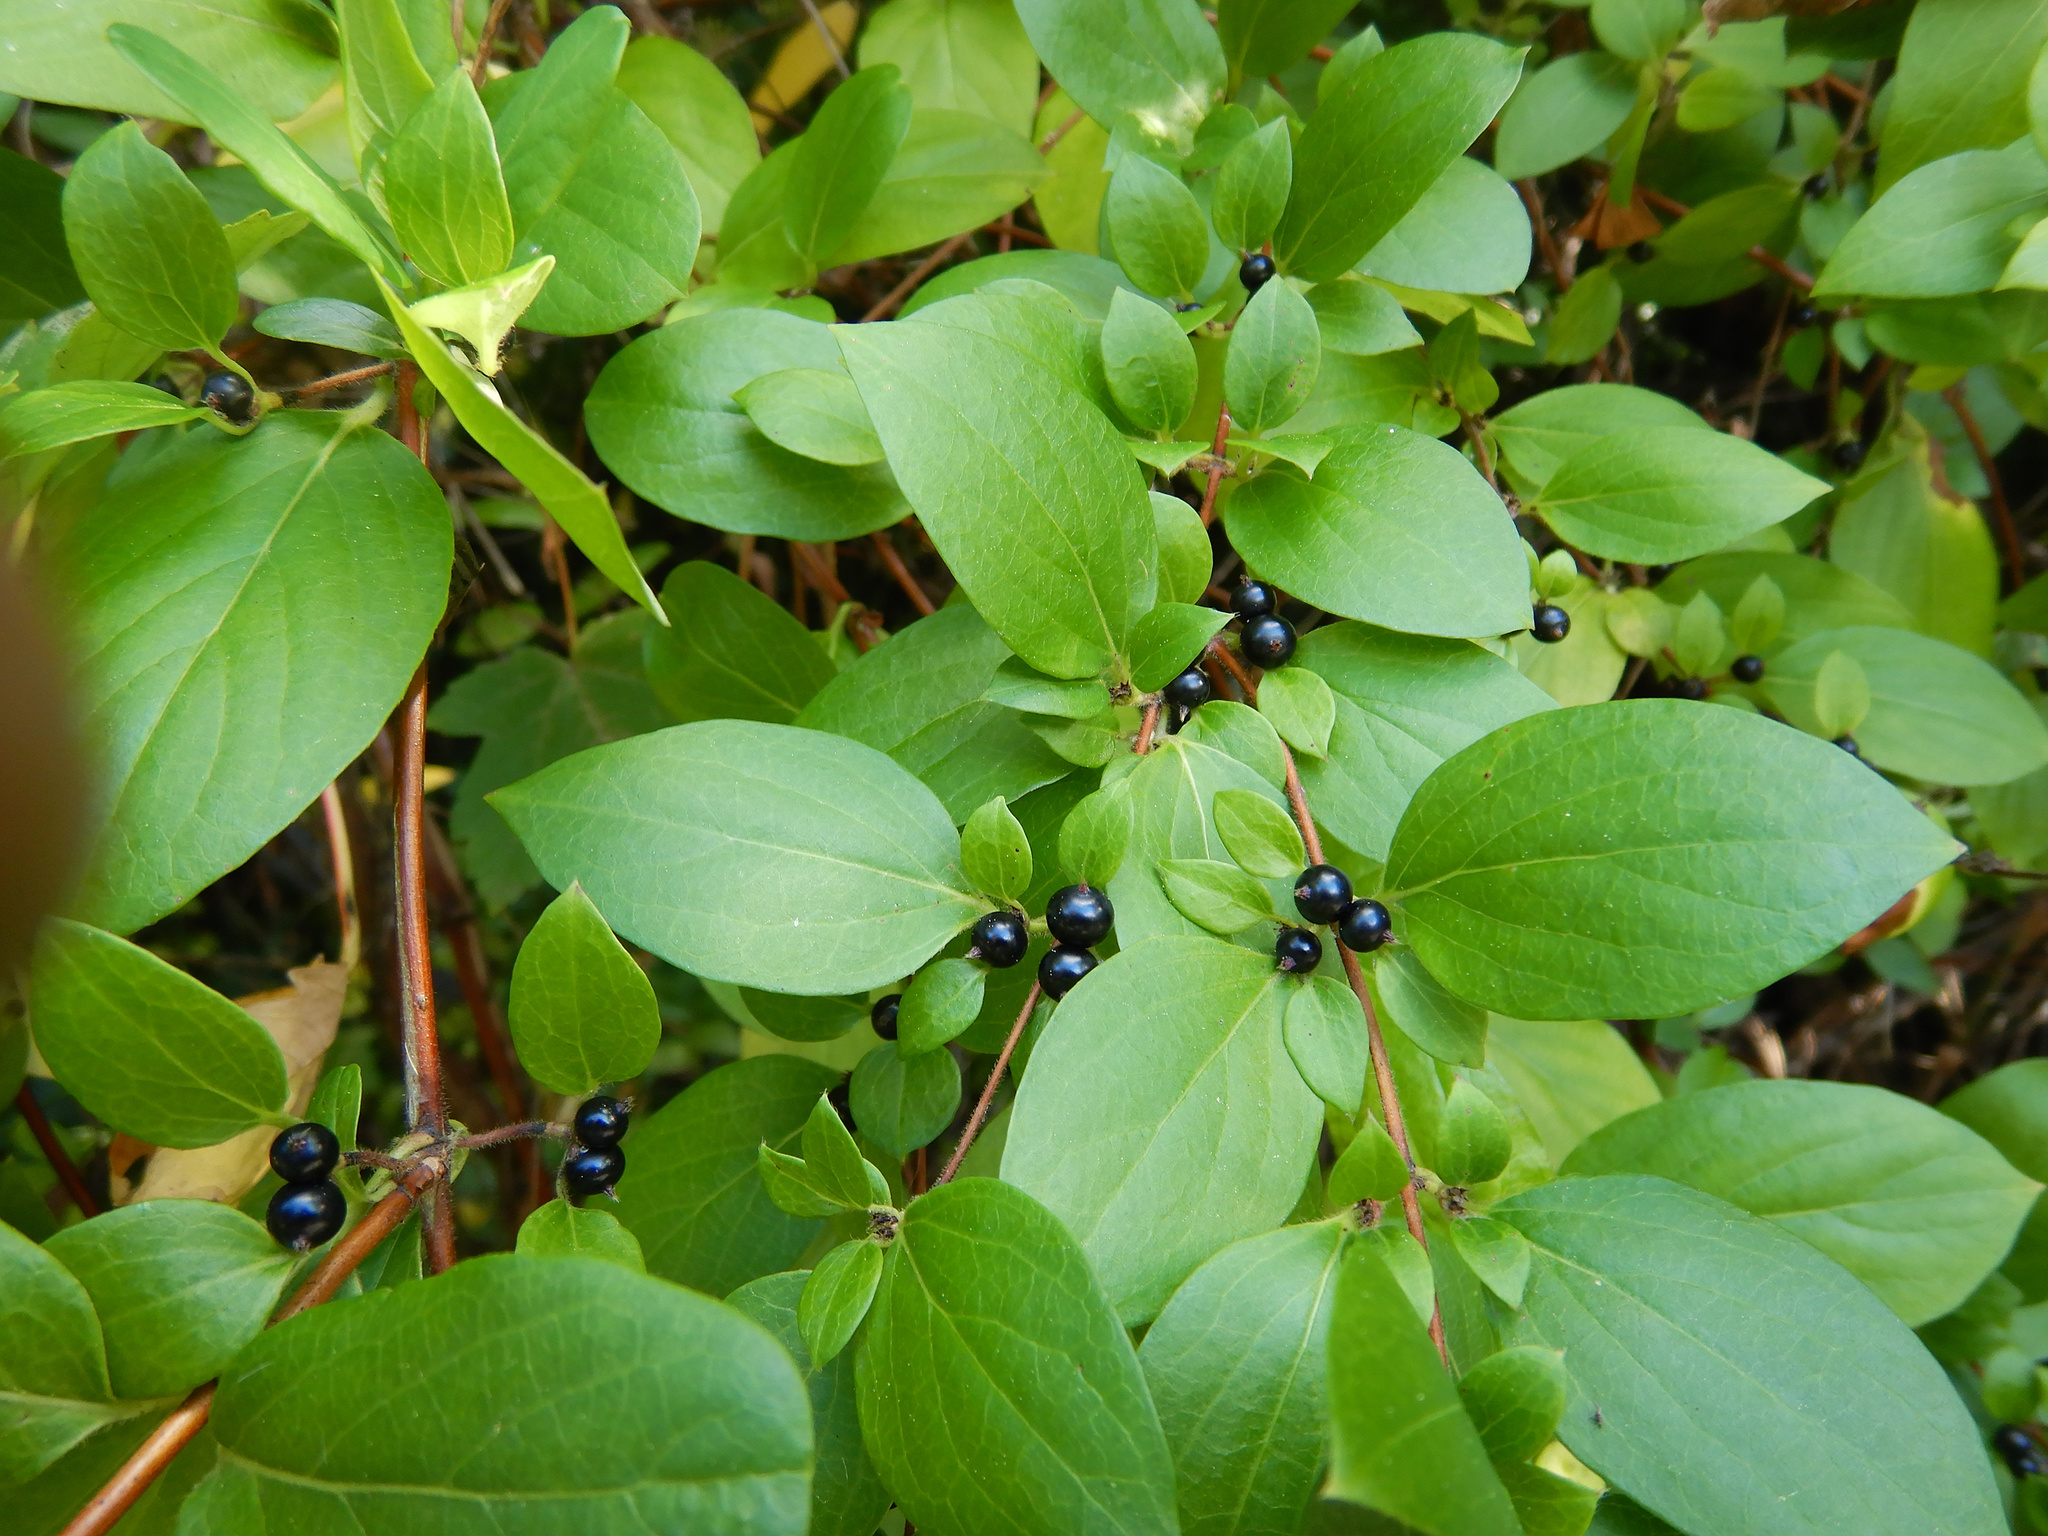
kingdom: Plantae
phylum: Tracheophyta
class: Magnoliopsida
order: Dipsacales
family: Caprifoliaceae
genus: Lonicera
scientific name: Lonicera japonica
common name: Japanese honeysuckle
